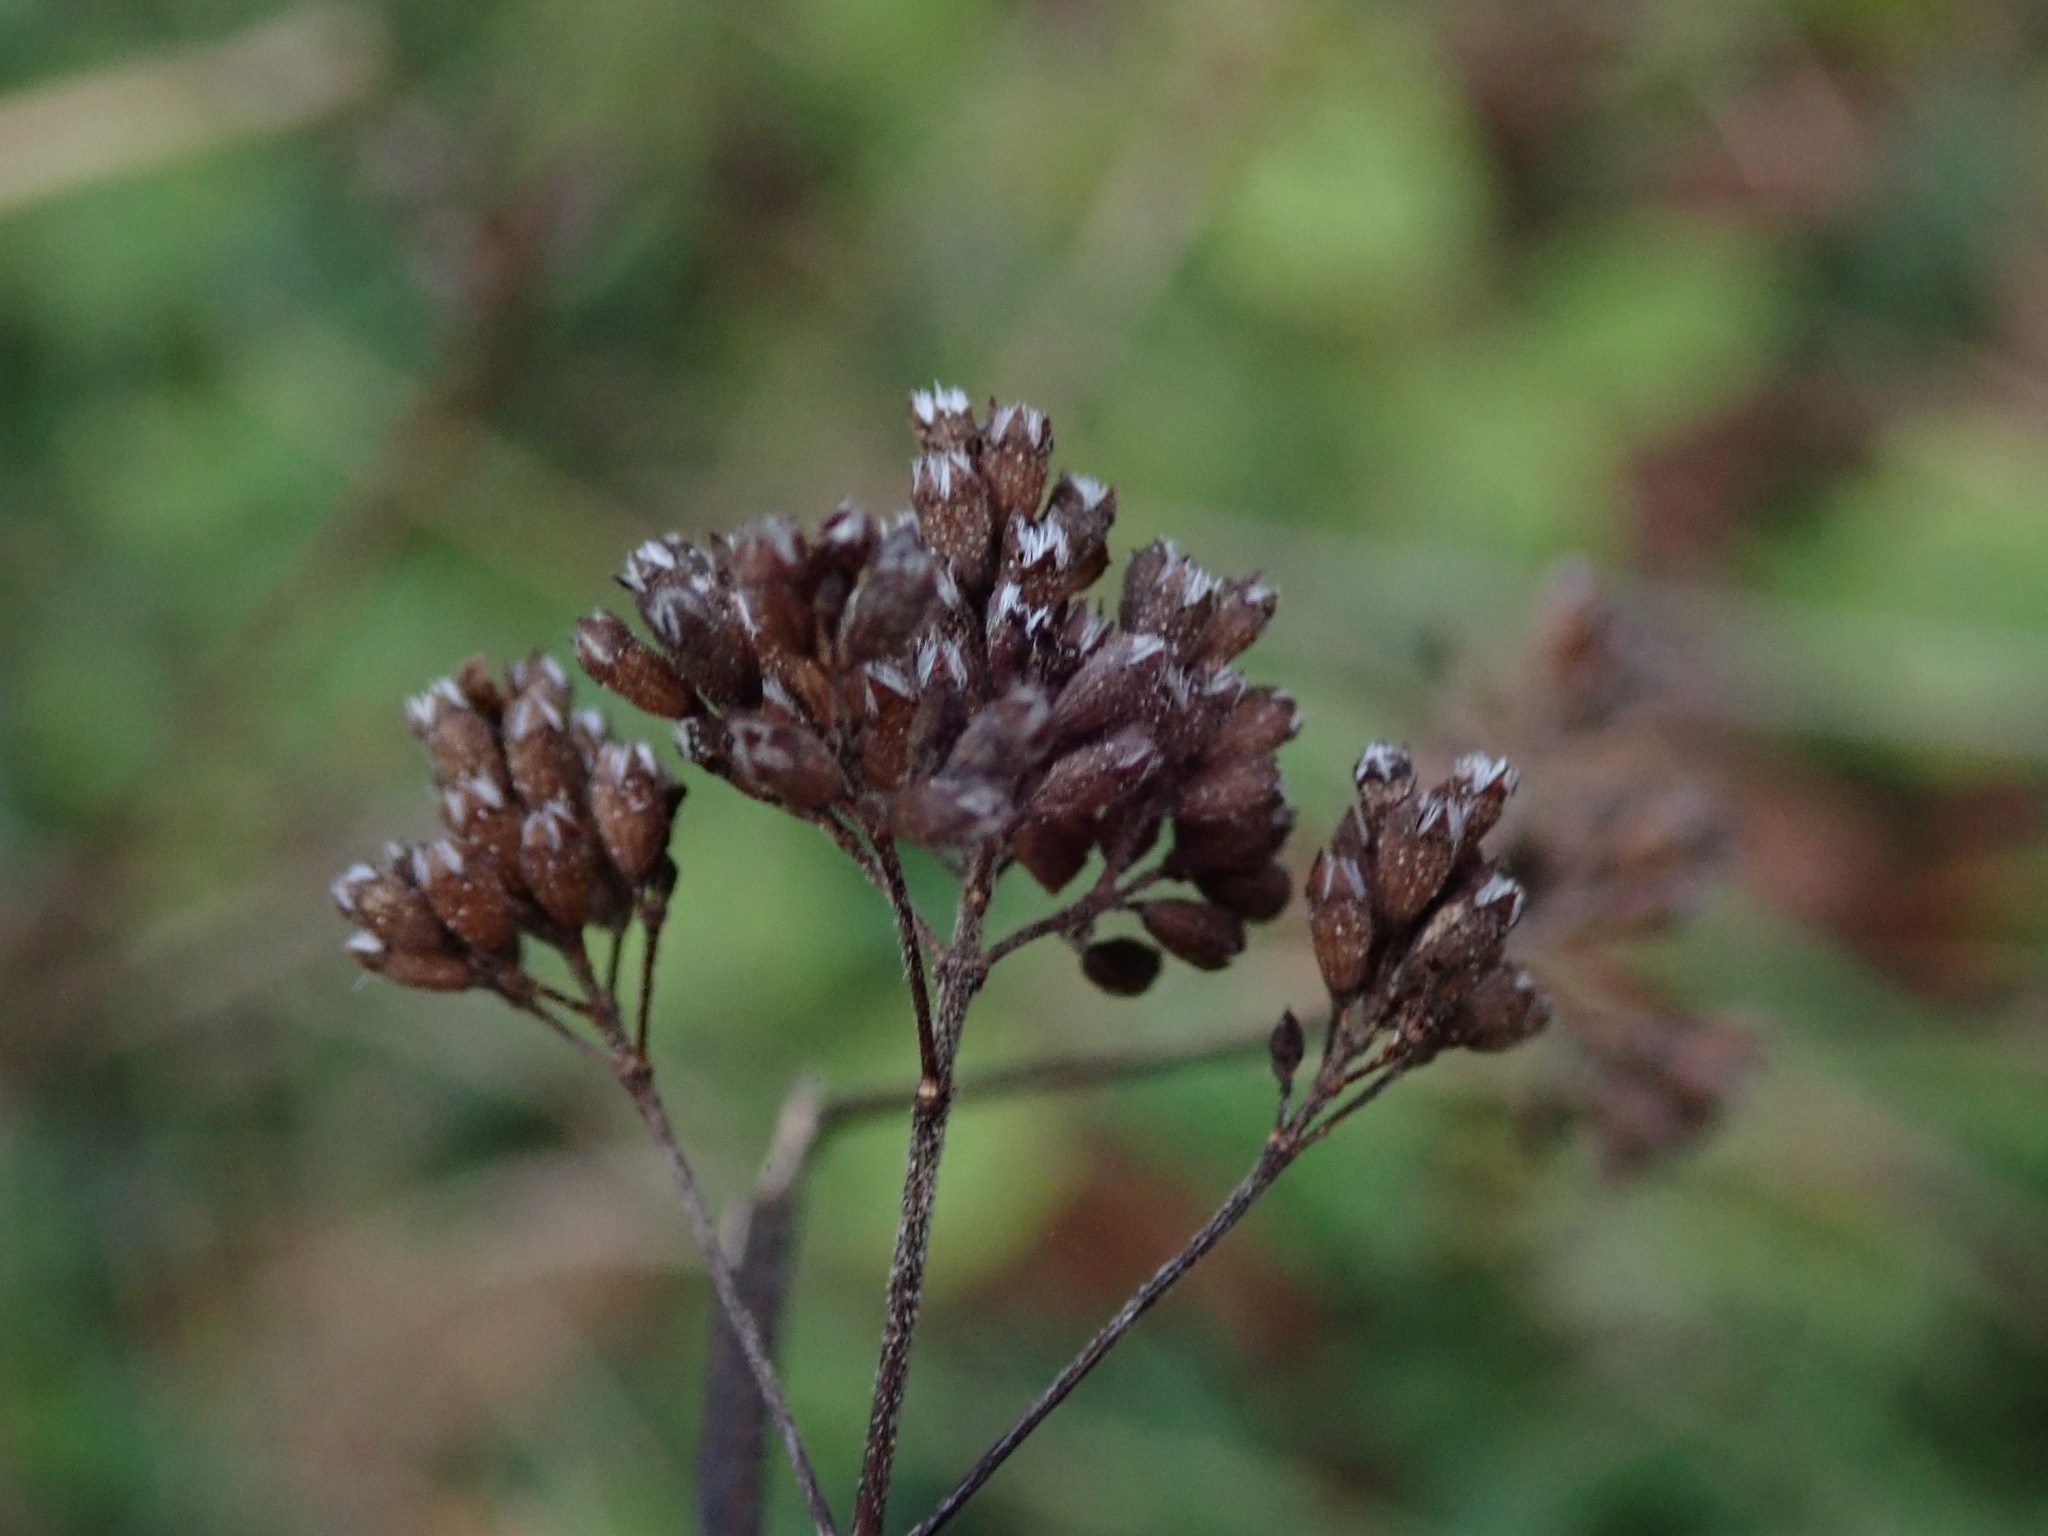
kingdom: Plantae
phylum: Tracheophyta
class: Magnoliopsida
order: Lamiales
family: Lamiaceae
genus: Origanum
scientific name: Origanum vulgare
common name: Wild marjoram
